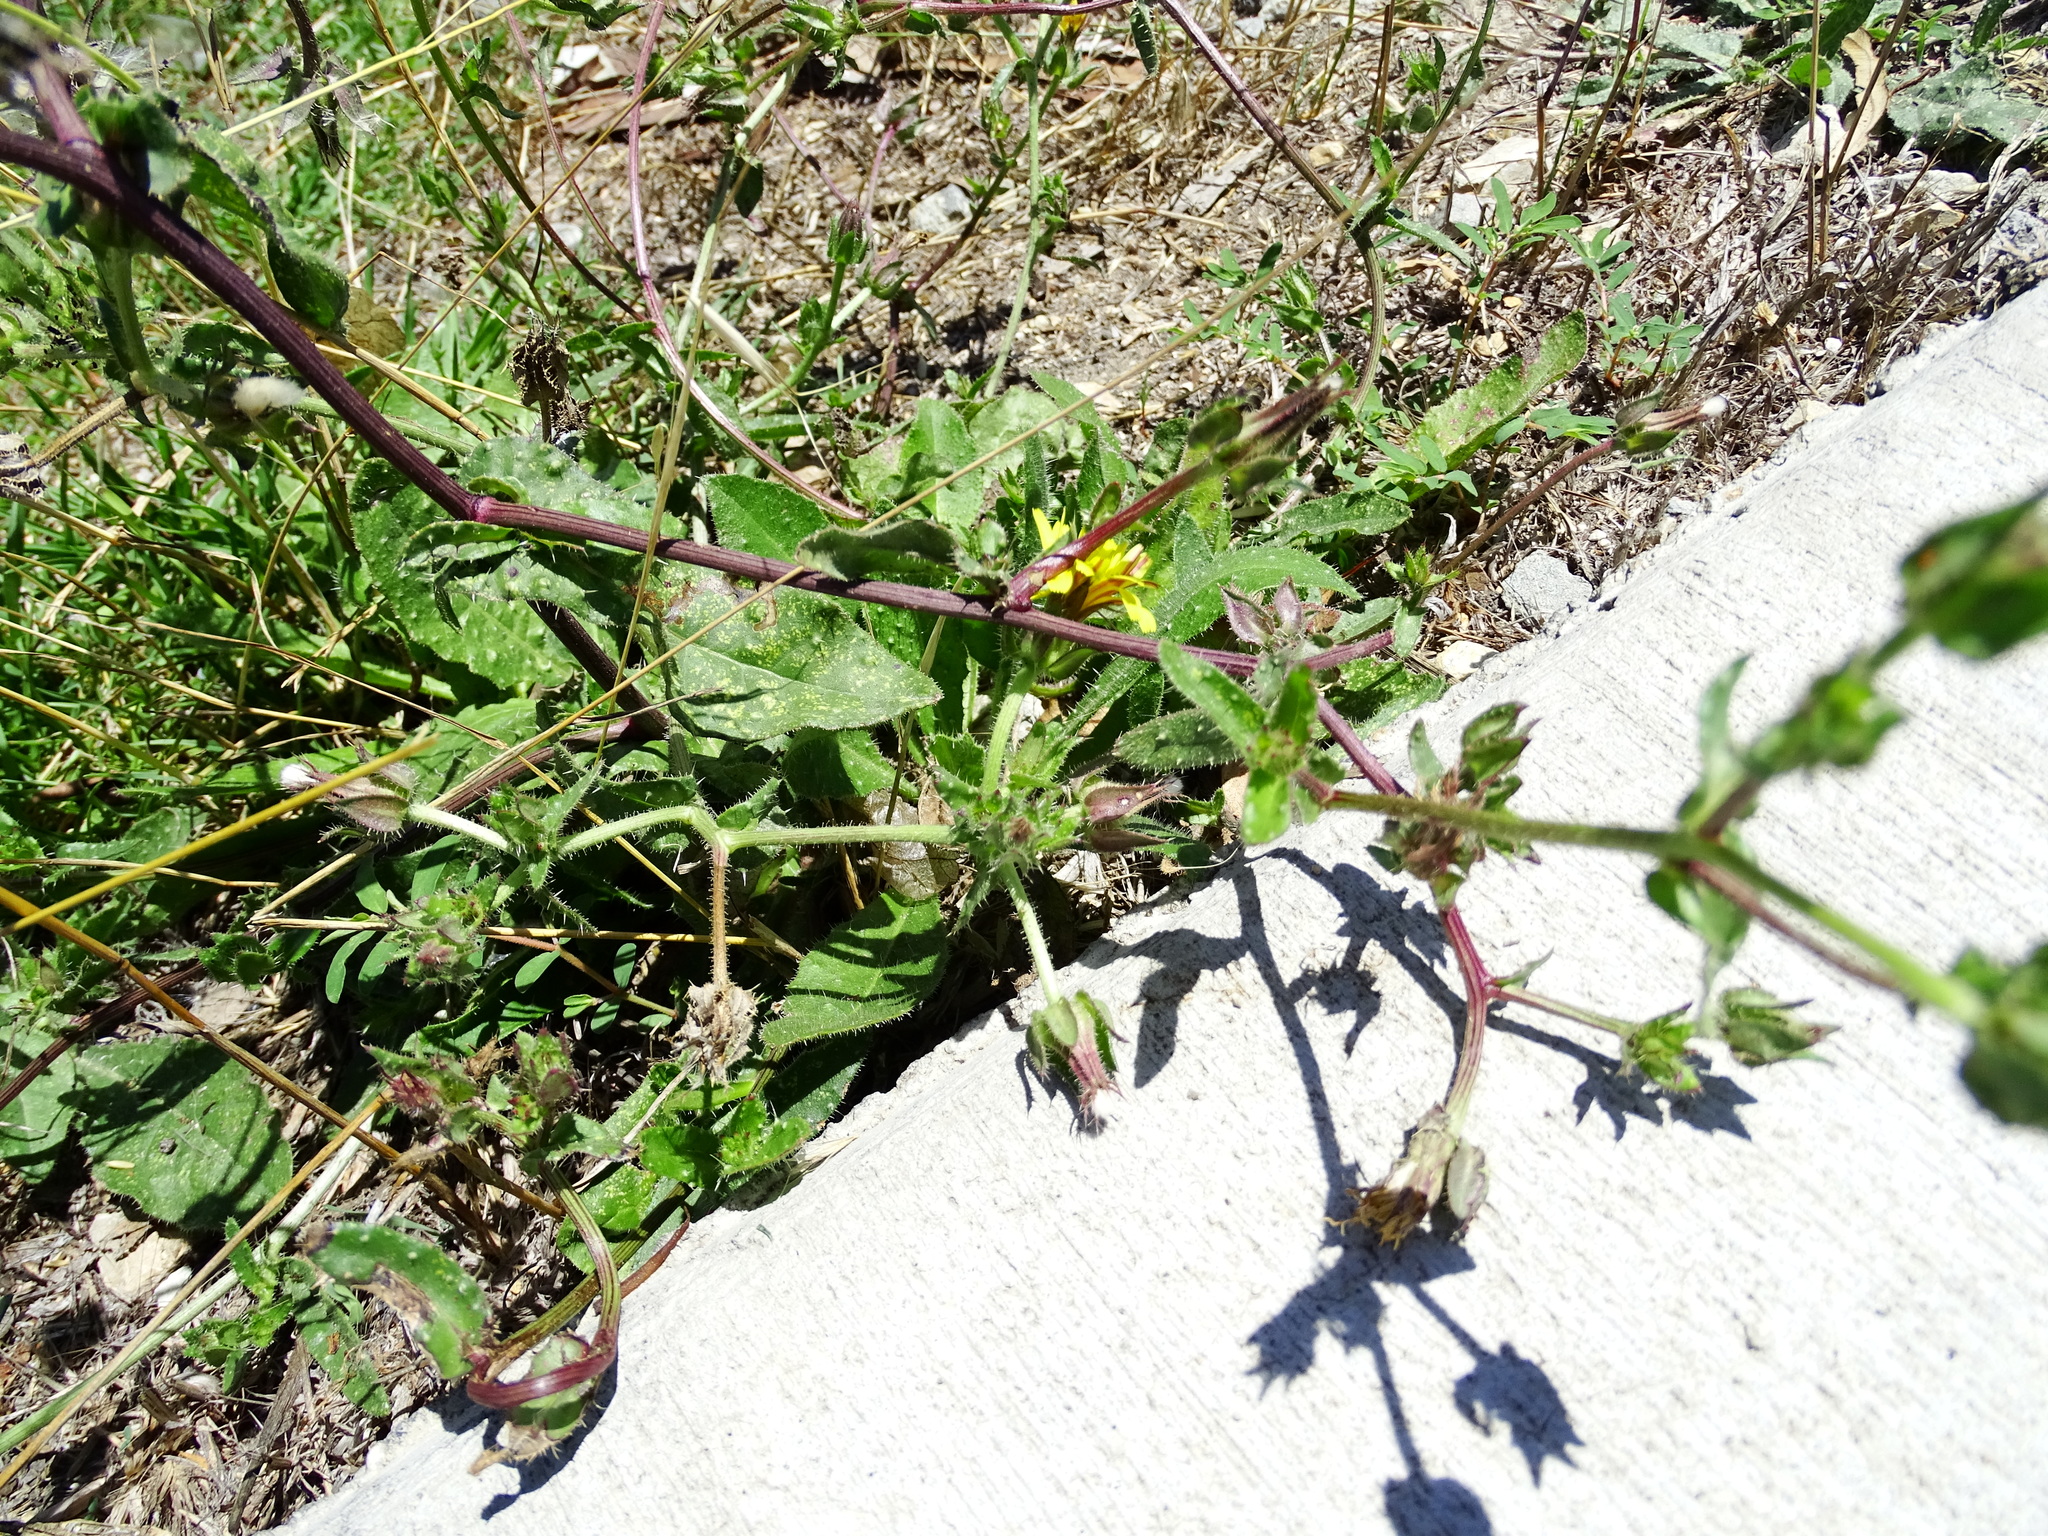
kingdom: Plantae
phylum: Tracheophyta
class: Magnoliopsida
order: Asterales
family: Asteraceae
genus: Helminthotheca
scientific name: Helminthotheca echioides
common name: Ox-tongue
